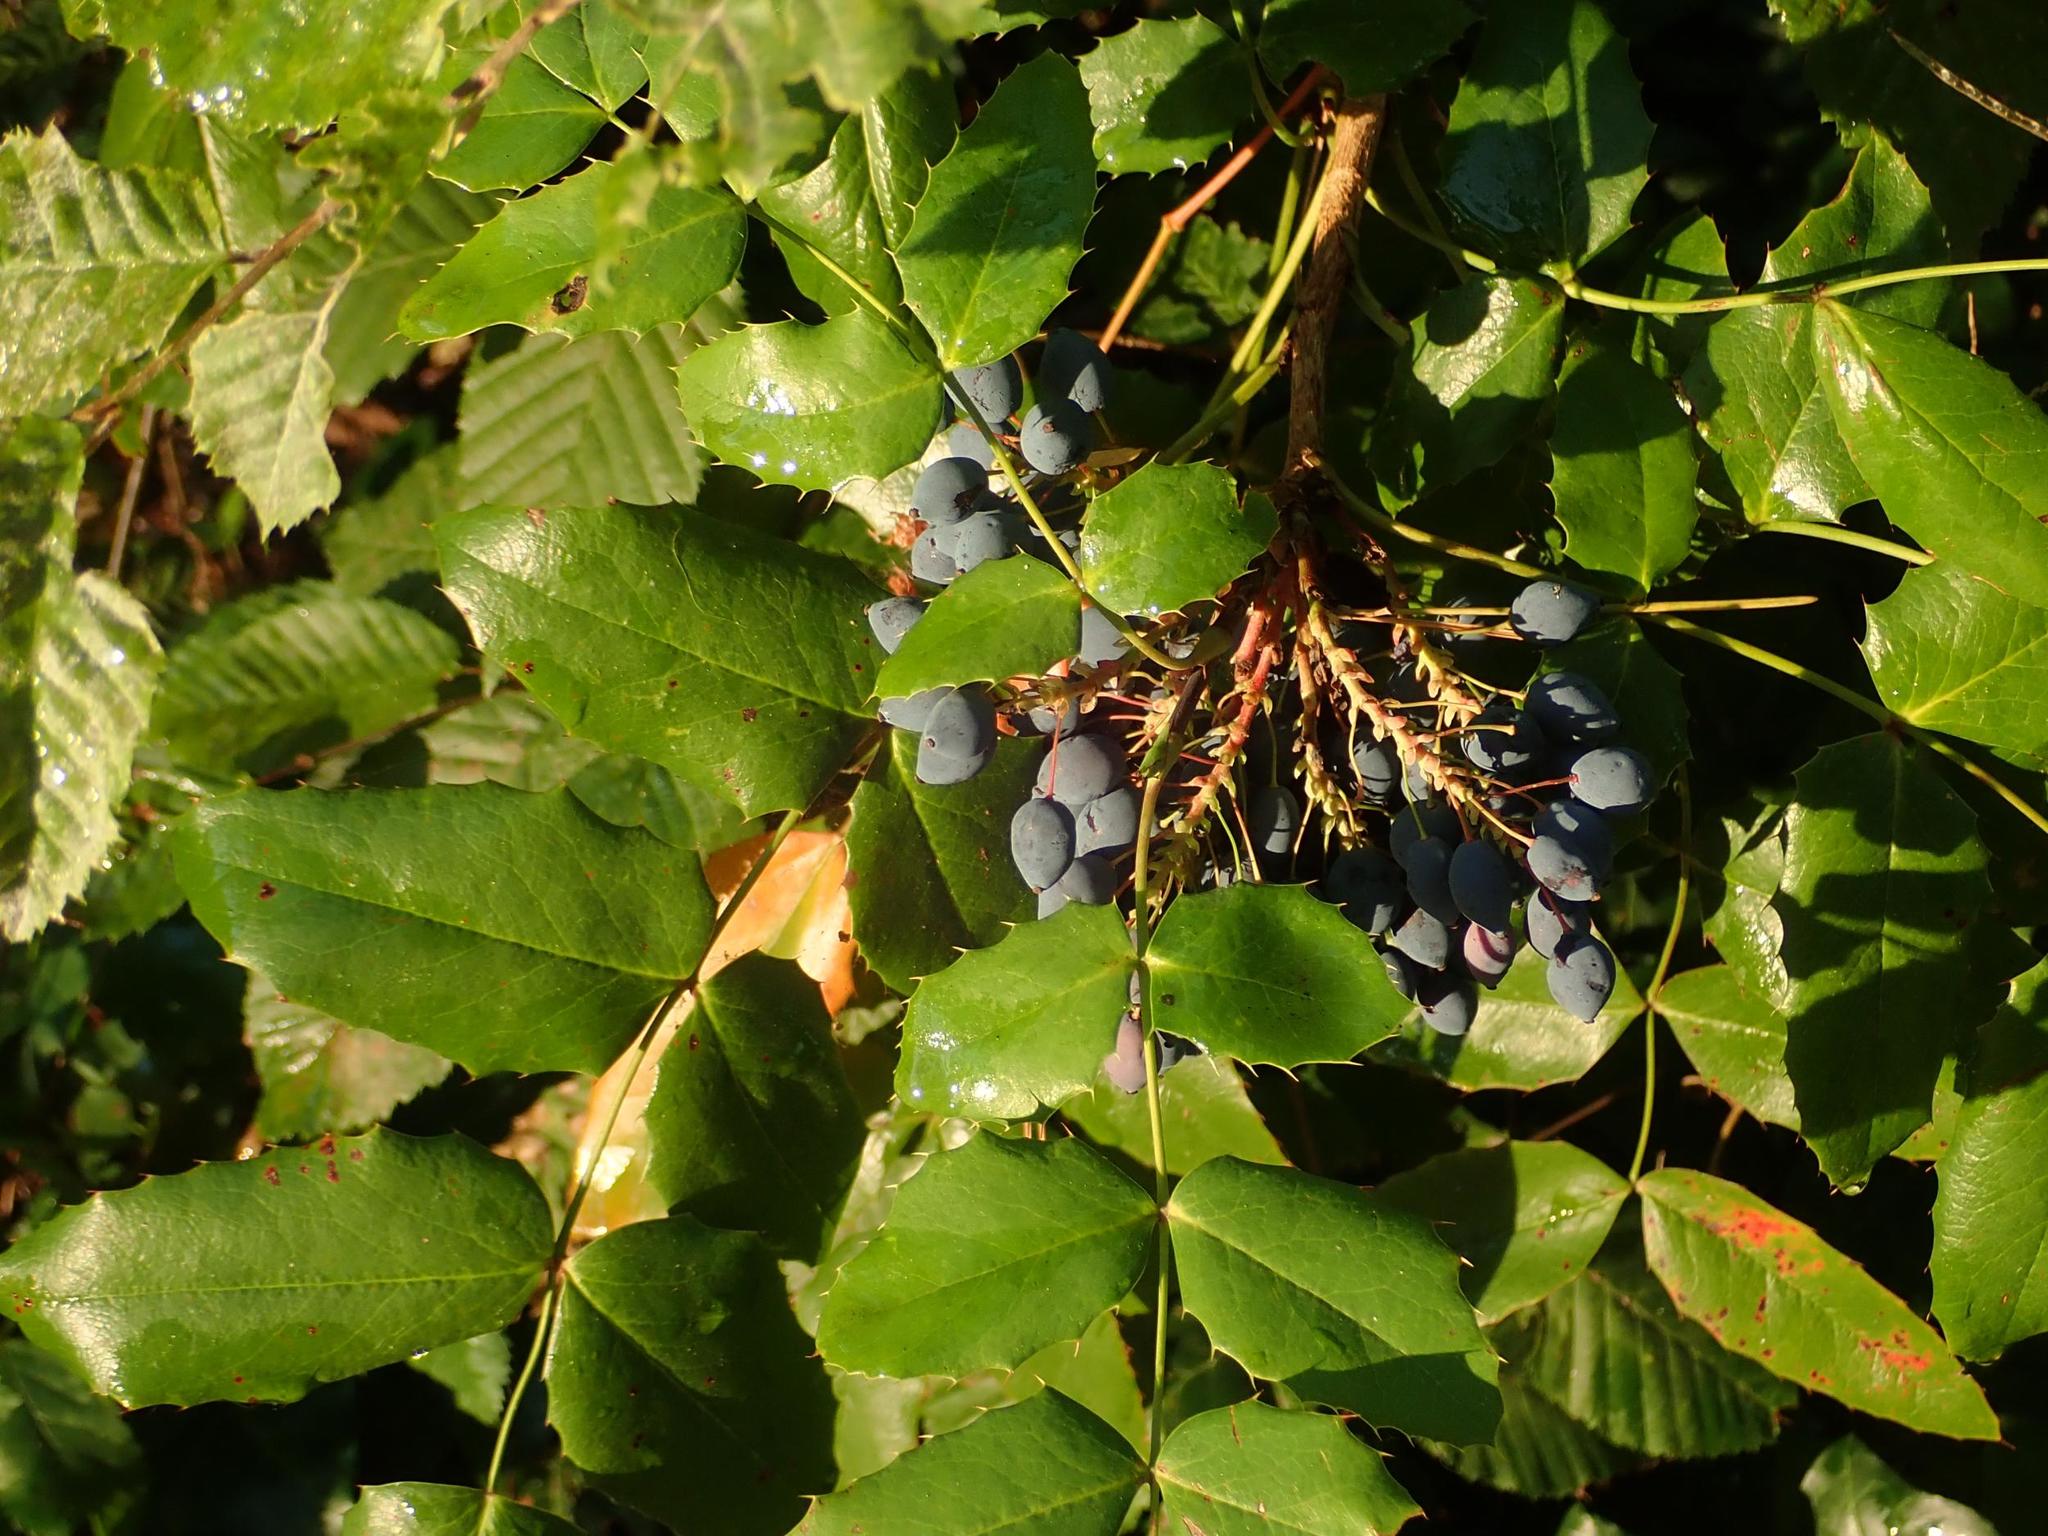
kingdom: Plantae
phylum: Tracheophyta
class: Magnoliopsida
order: Ranunculales
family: Berberidaceae
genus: Mahonia
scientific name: Mahonia aquifolium
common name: Oregon-grape
